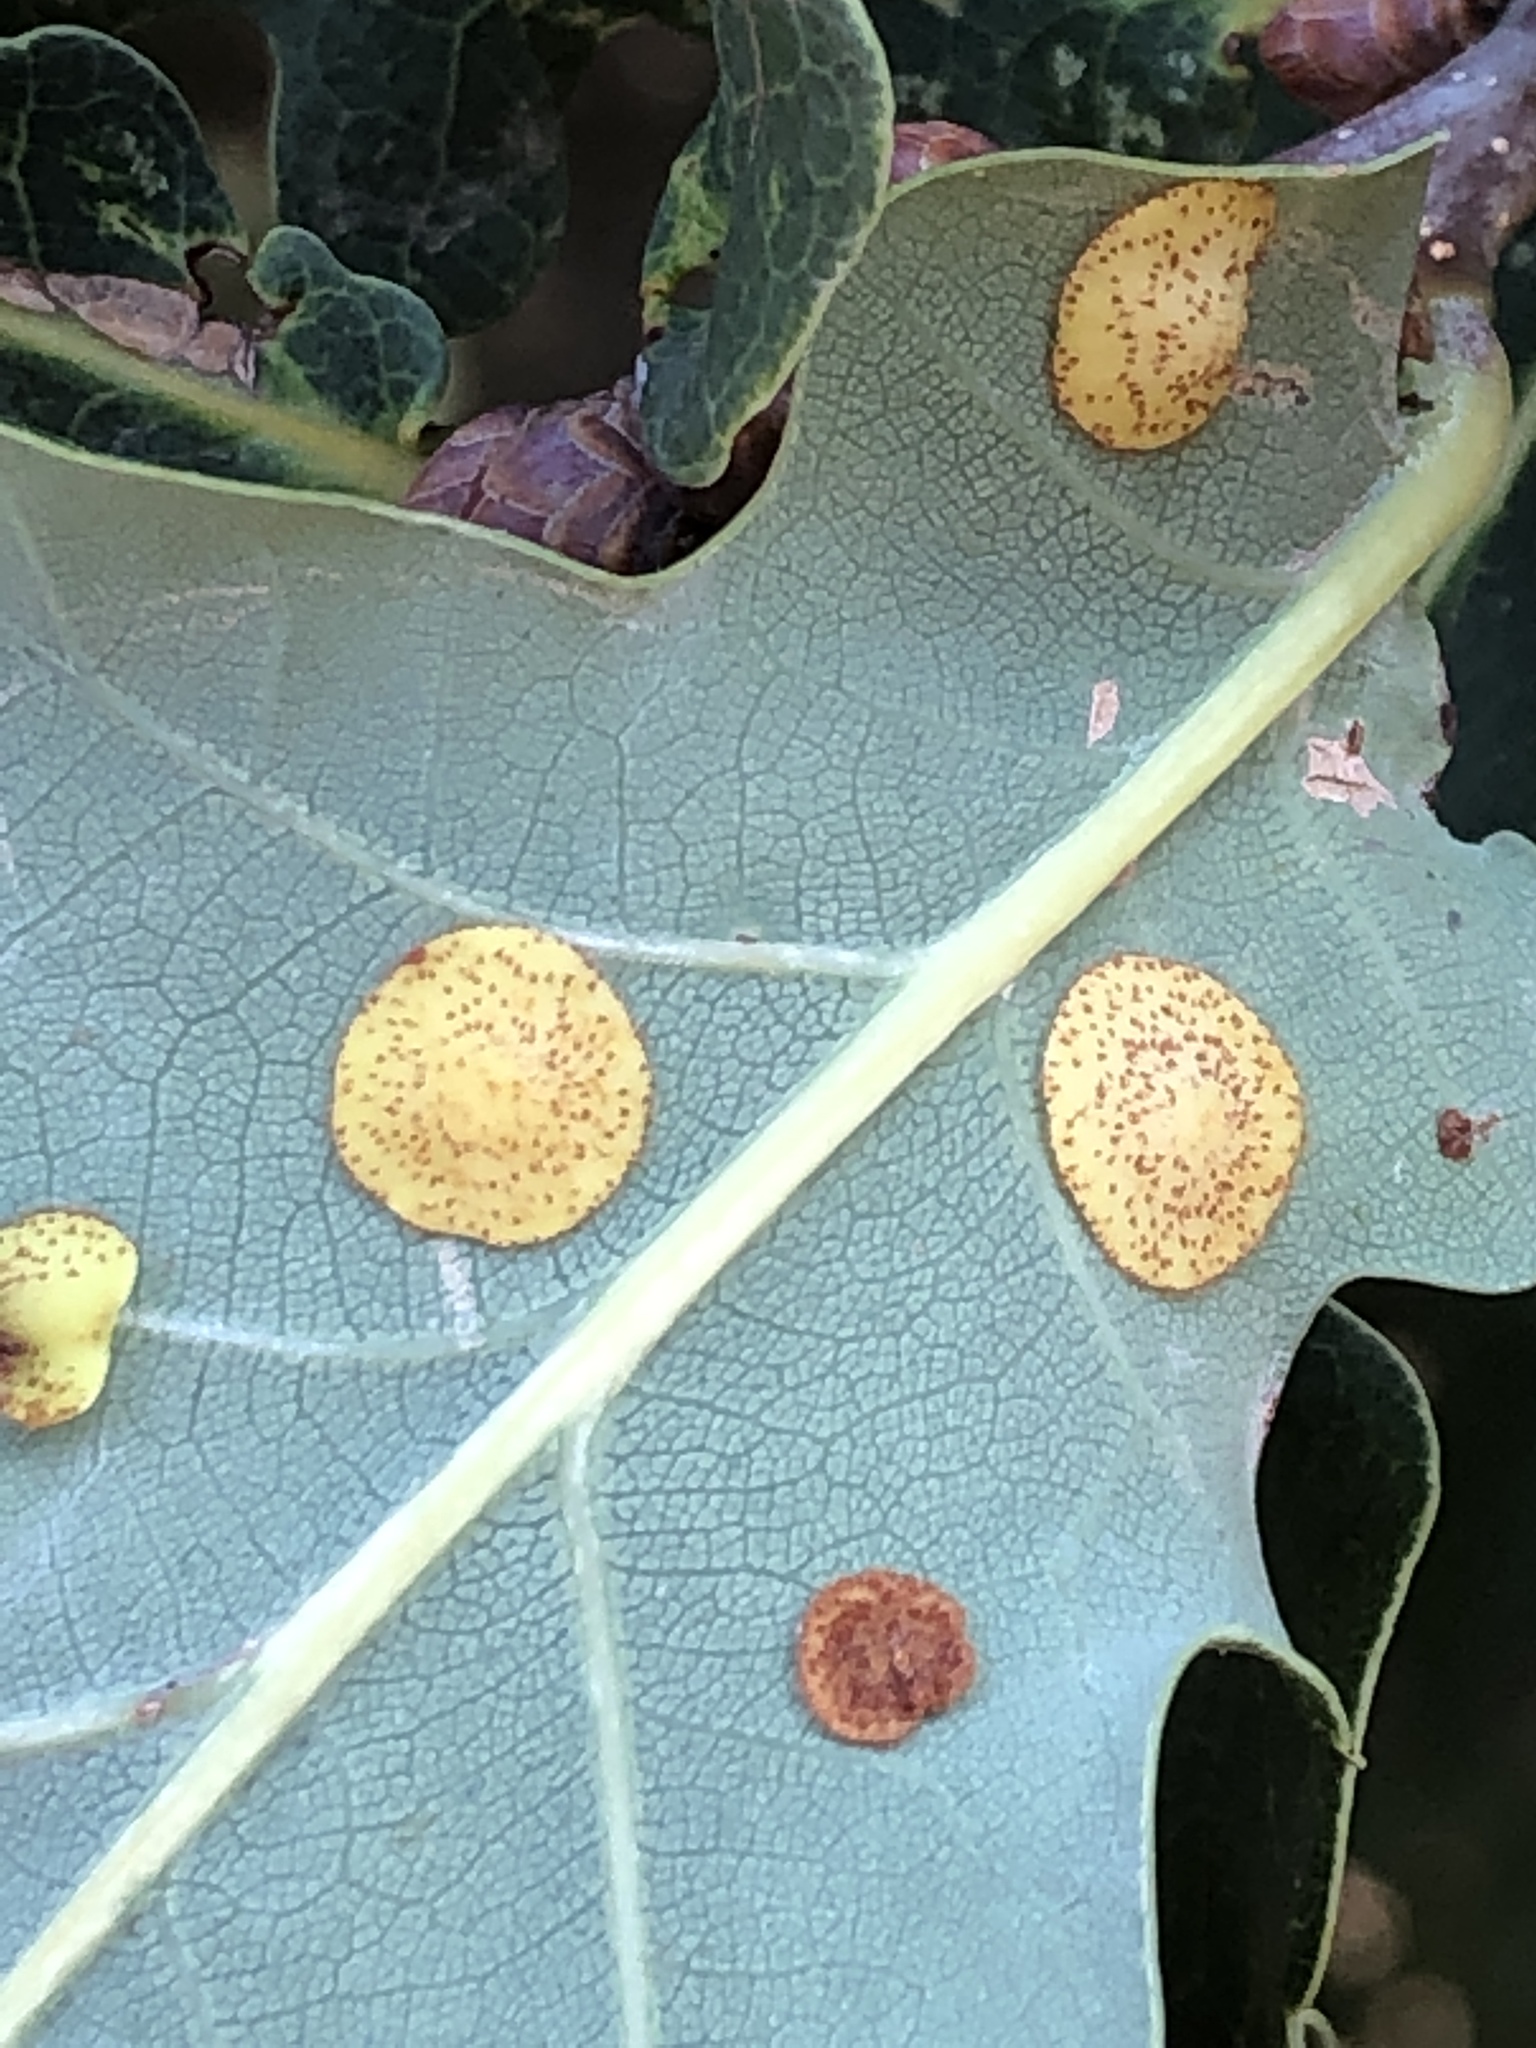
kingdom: Animalia
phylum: Arthropoda
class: Insecta
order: Hymenoptera
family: Cynipidae
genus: Neuroterus
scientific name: Neuroterus quercusbaccarum
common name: Common spangle gall
